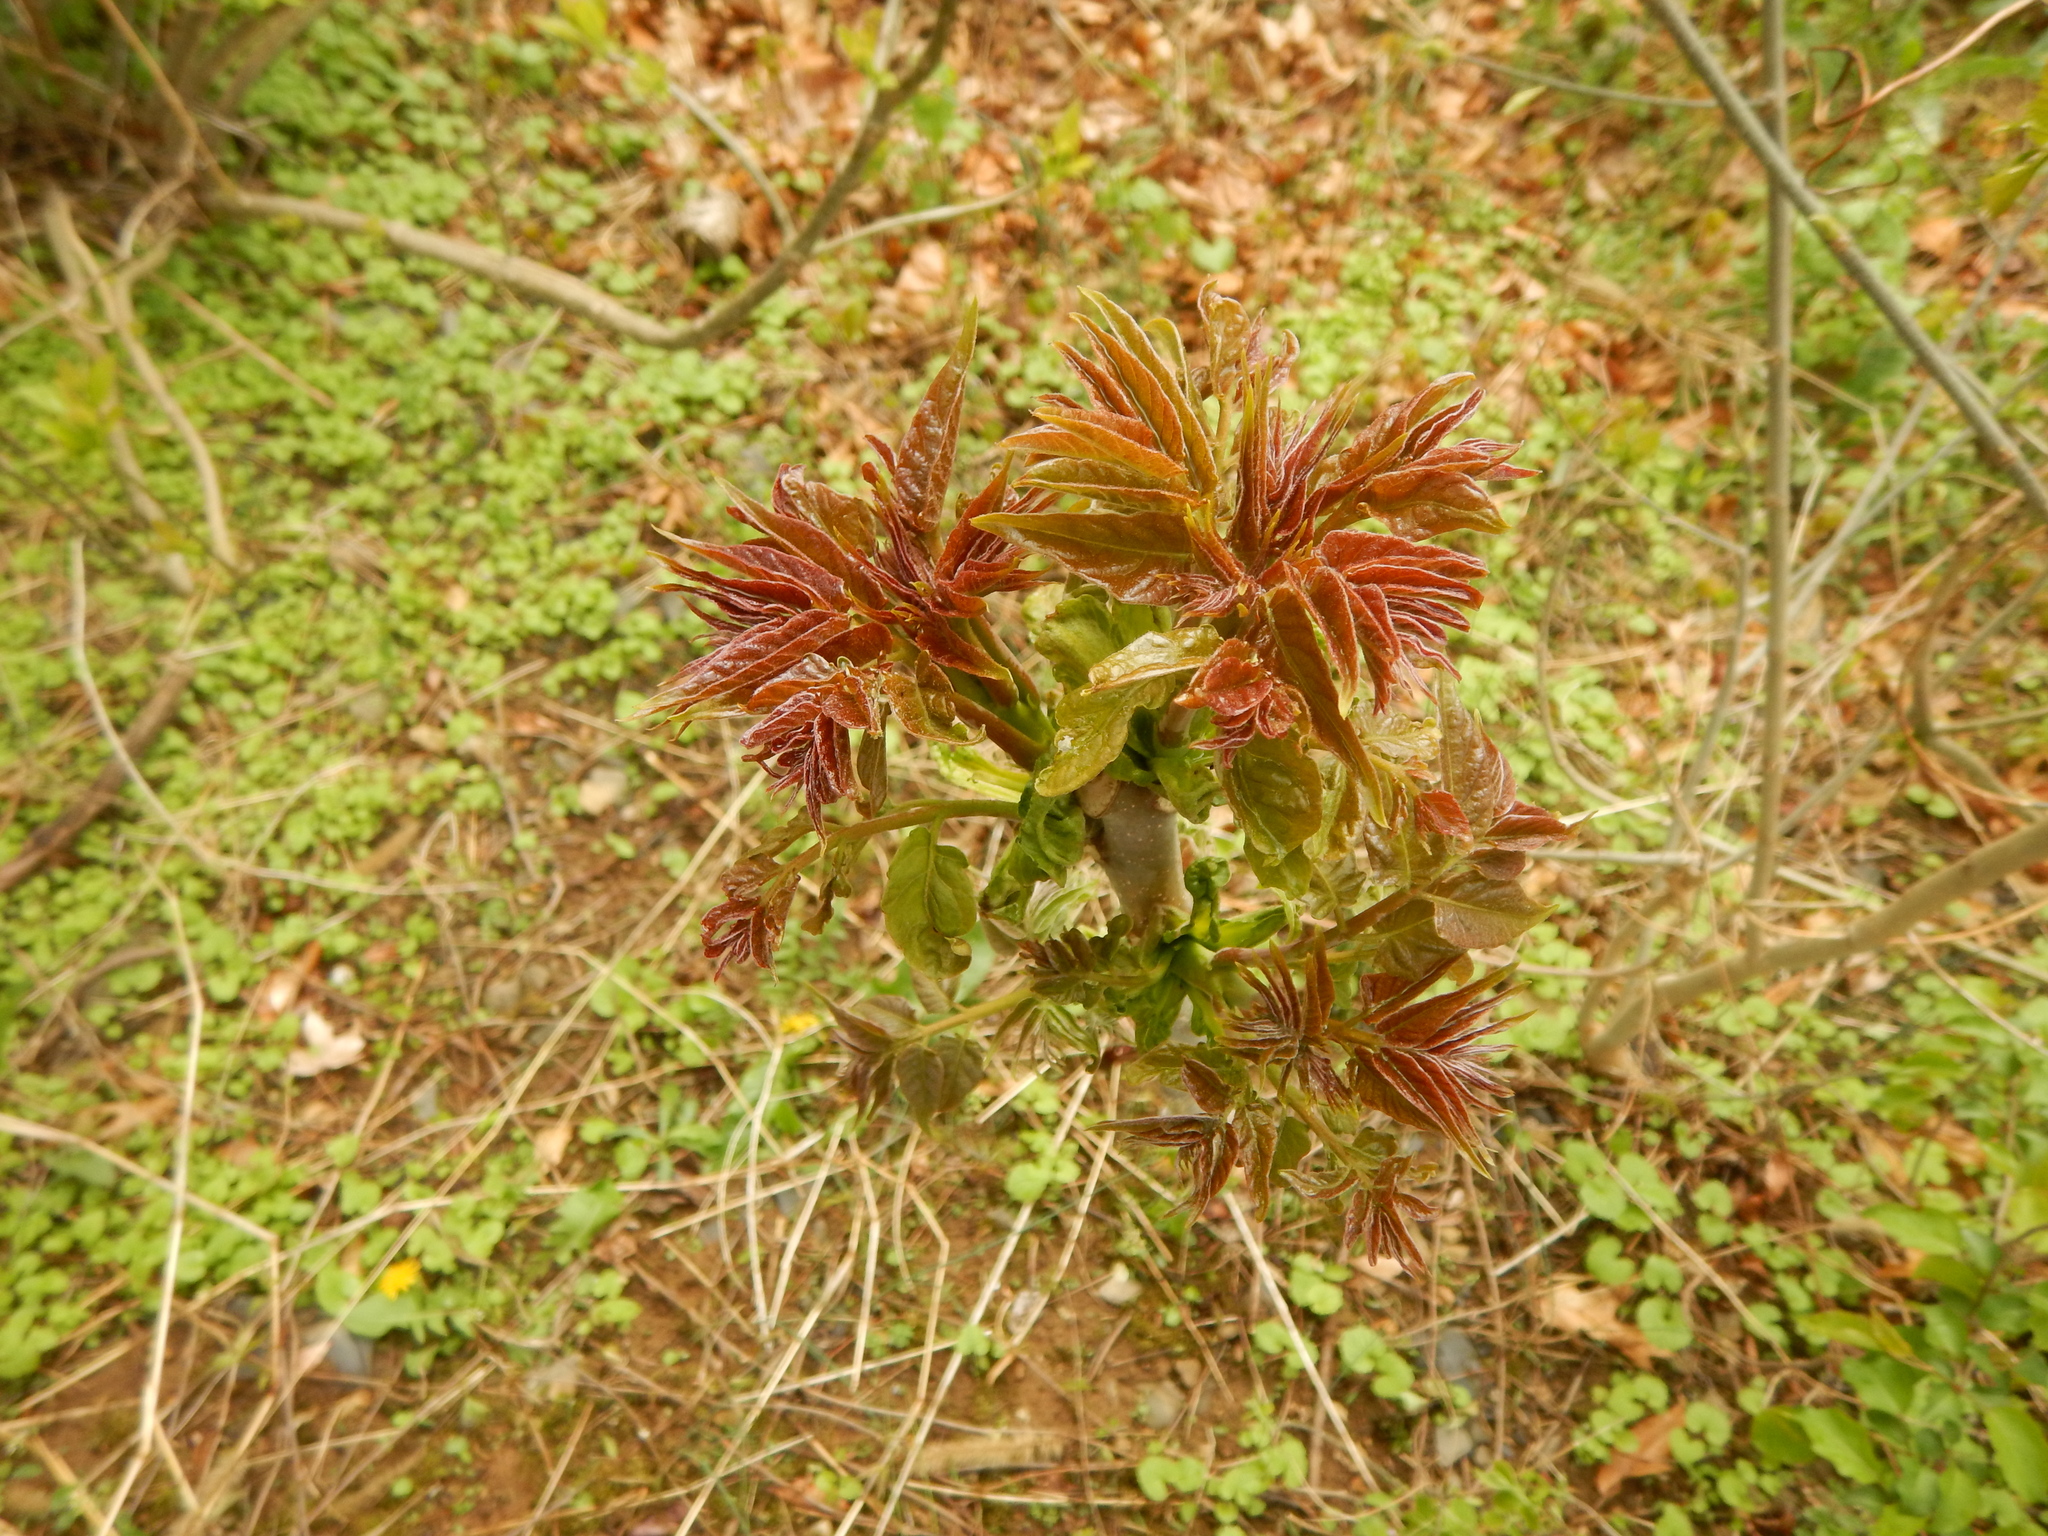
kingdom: Plantae
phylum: Tracheophyta
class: Magnoliopsida
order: Sapindales
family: Simaroubaceae
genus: Ailanthus
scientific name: Ailanthus altissima
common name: Tree-of-heaven
